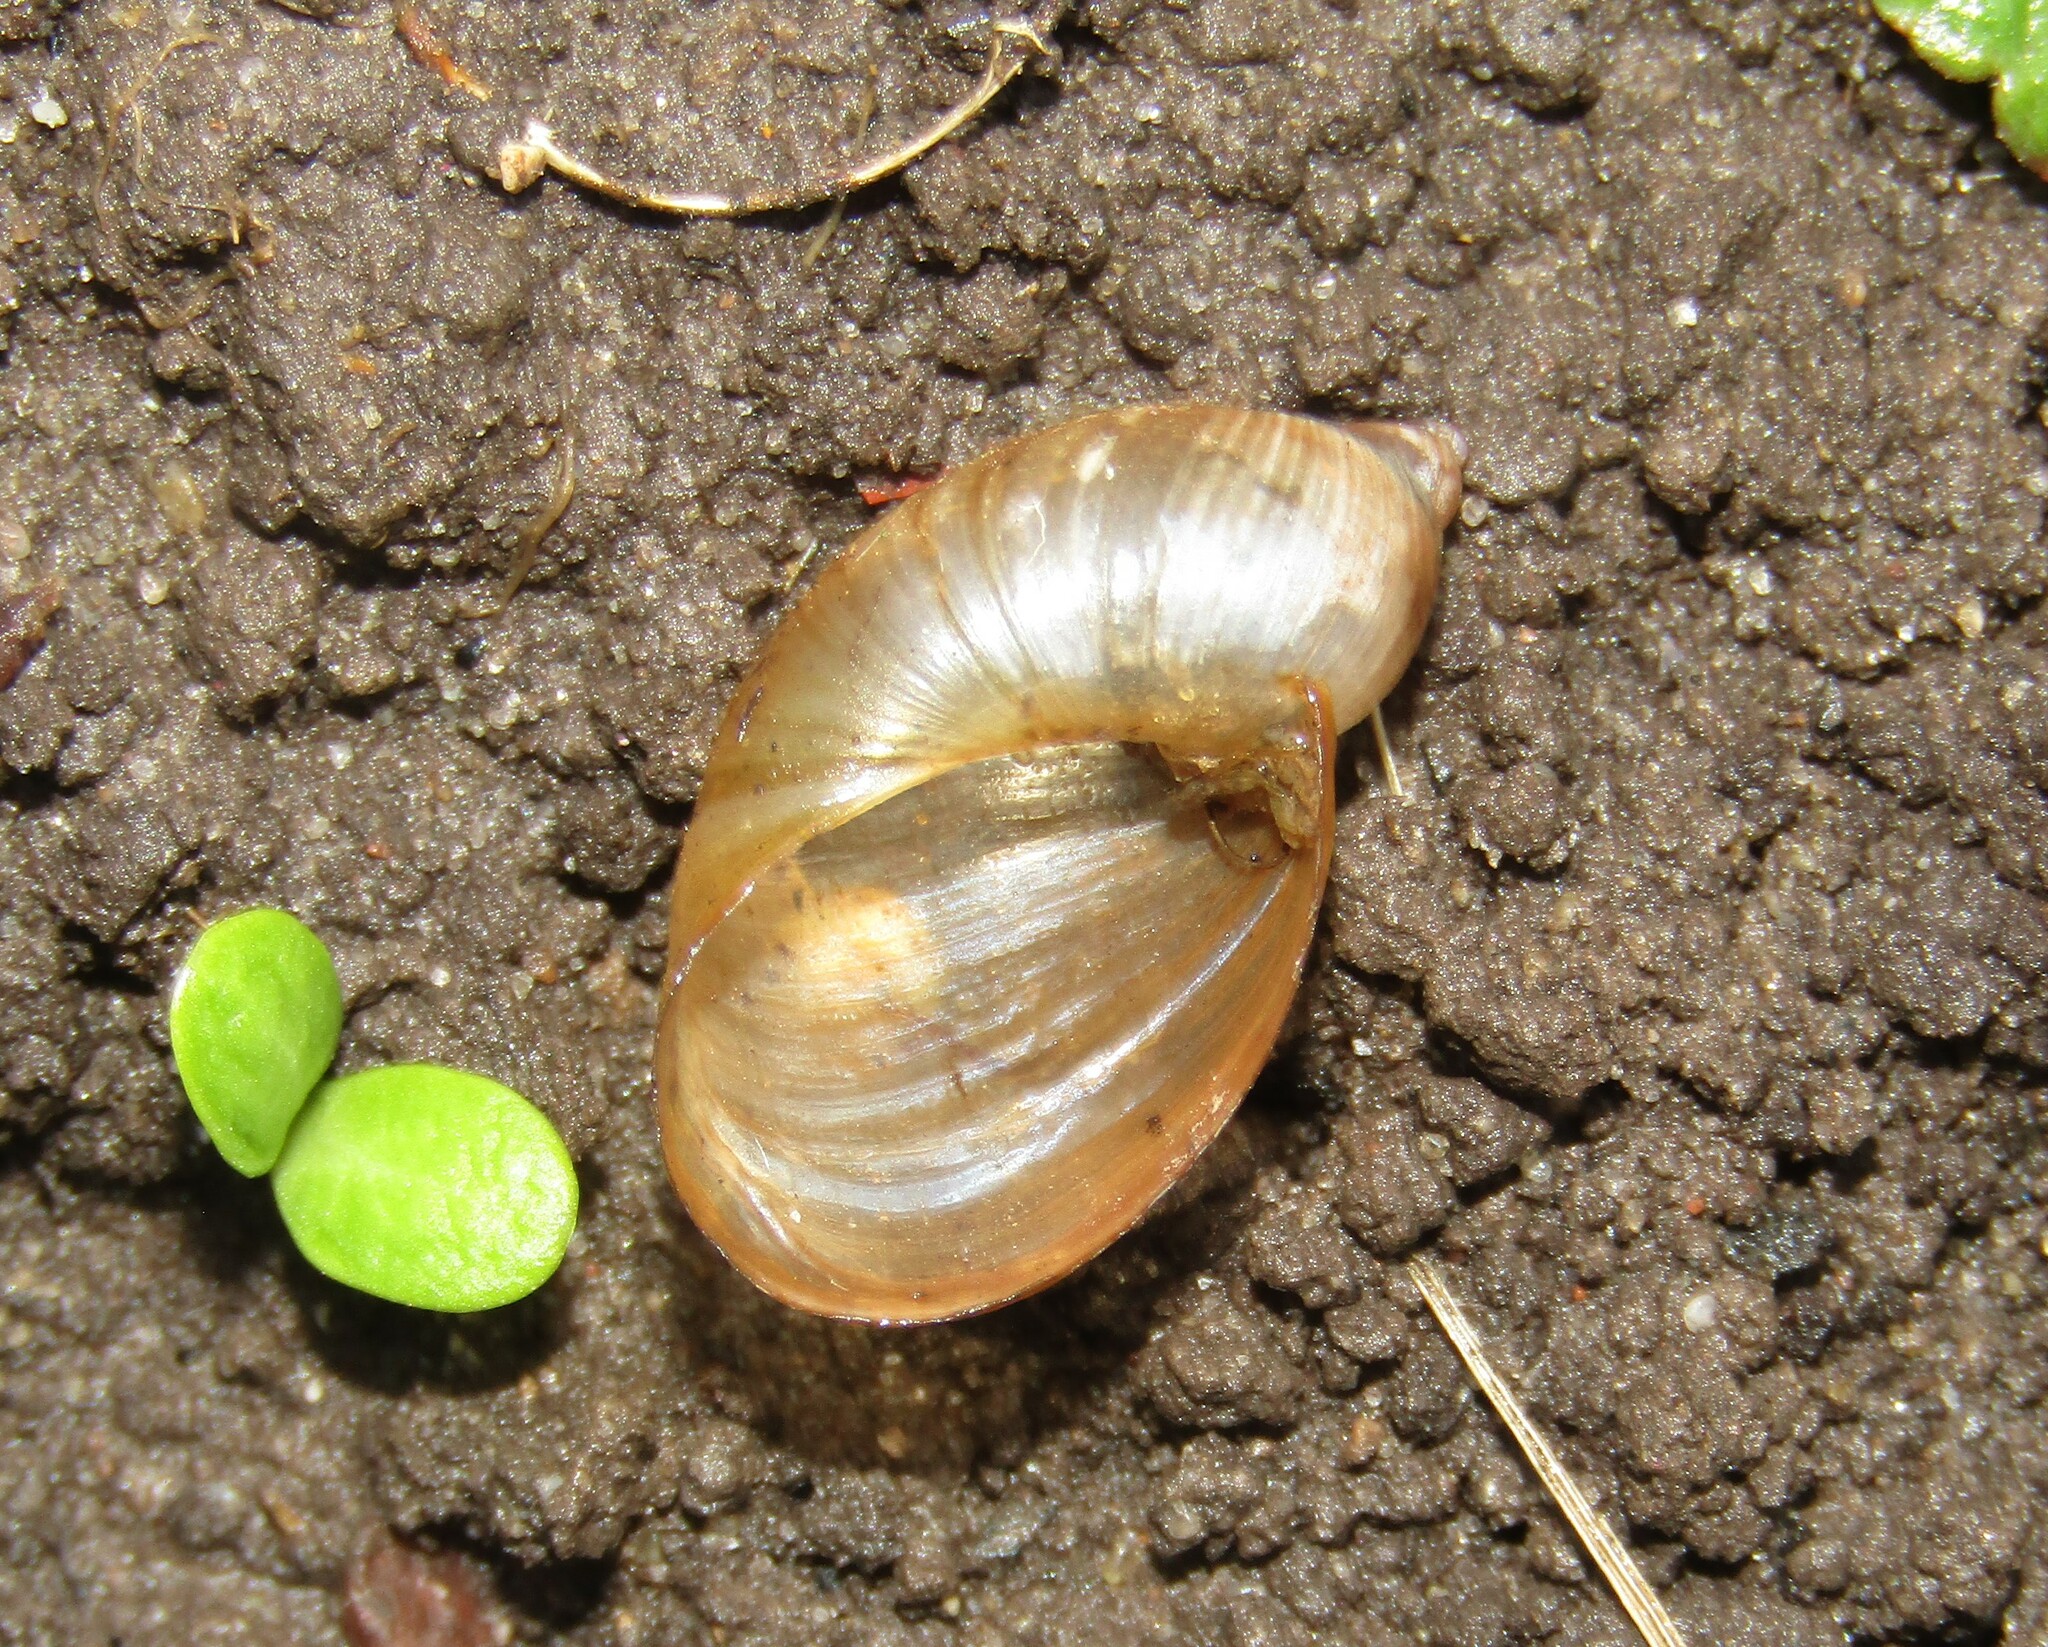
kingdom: Animalia
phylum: Mollusca
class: Gastropoda
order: Stylommatophora
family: Succineidae
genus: Succinea
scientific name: Succinea putris
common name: European ambersnail
